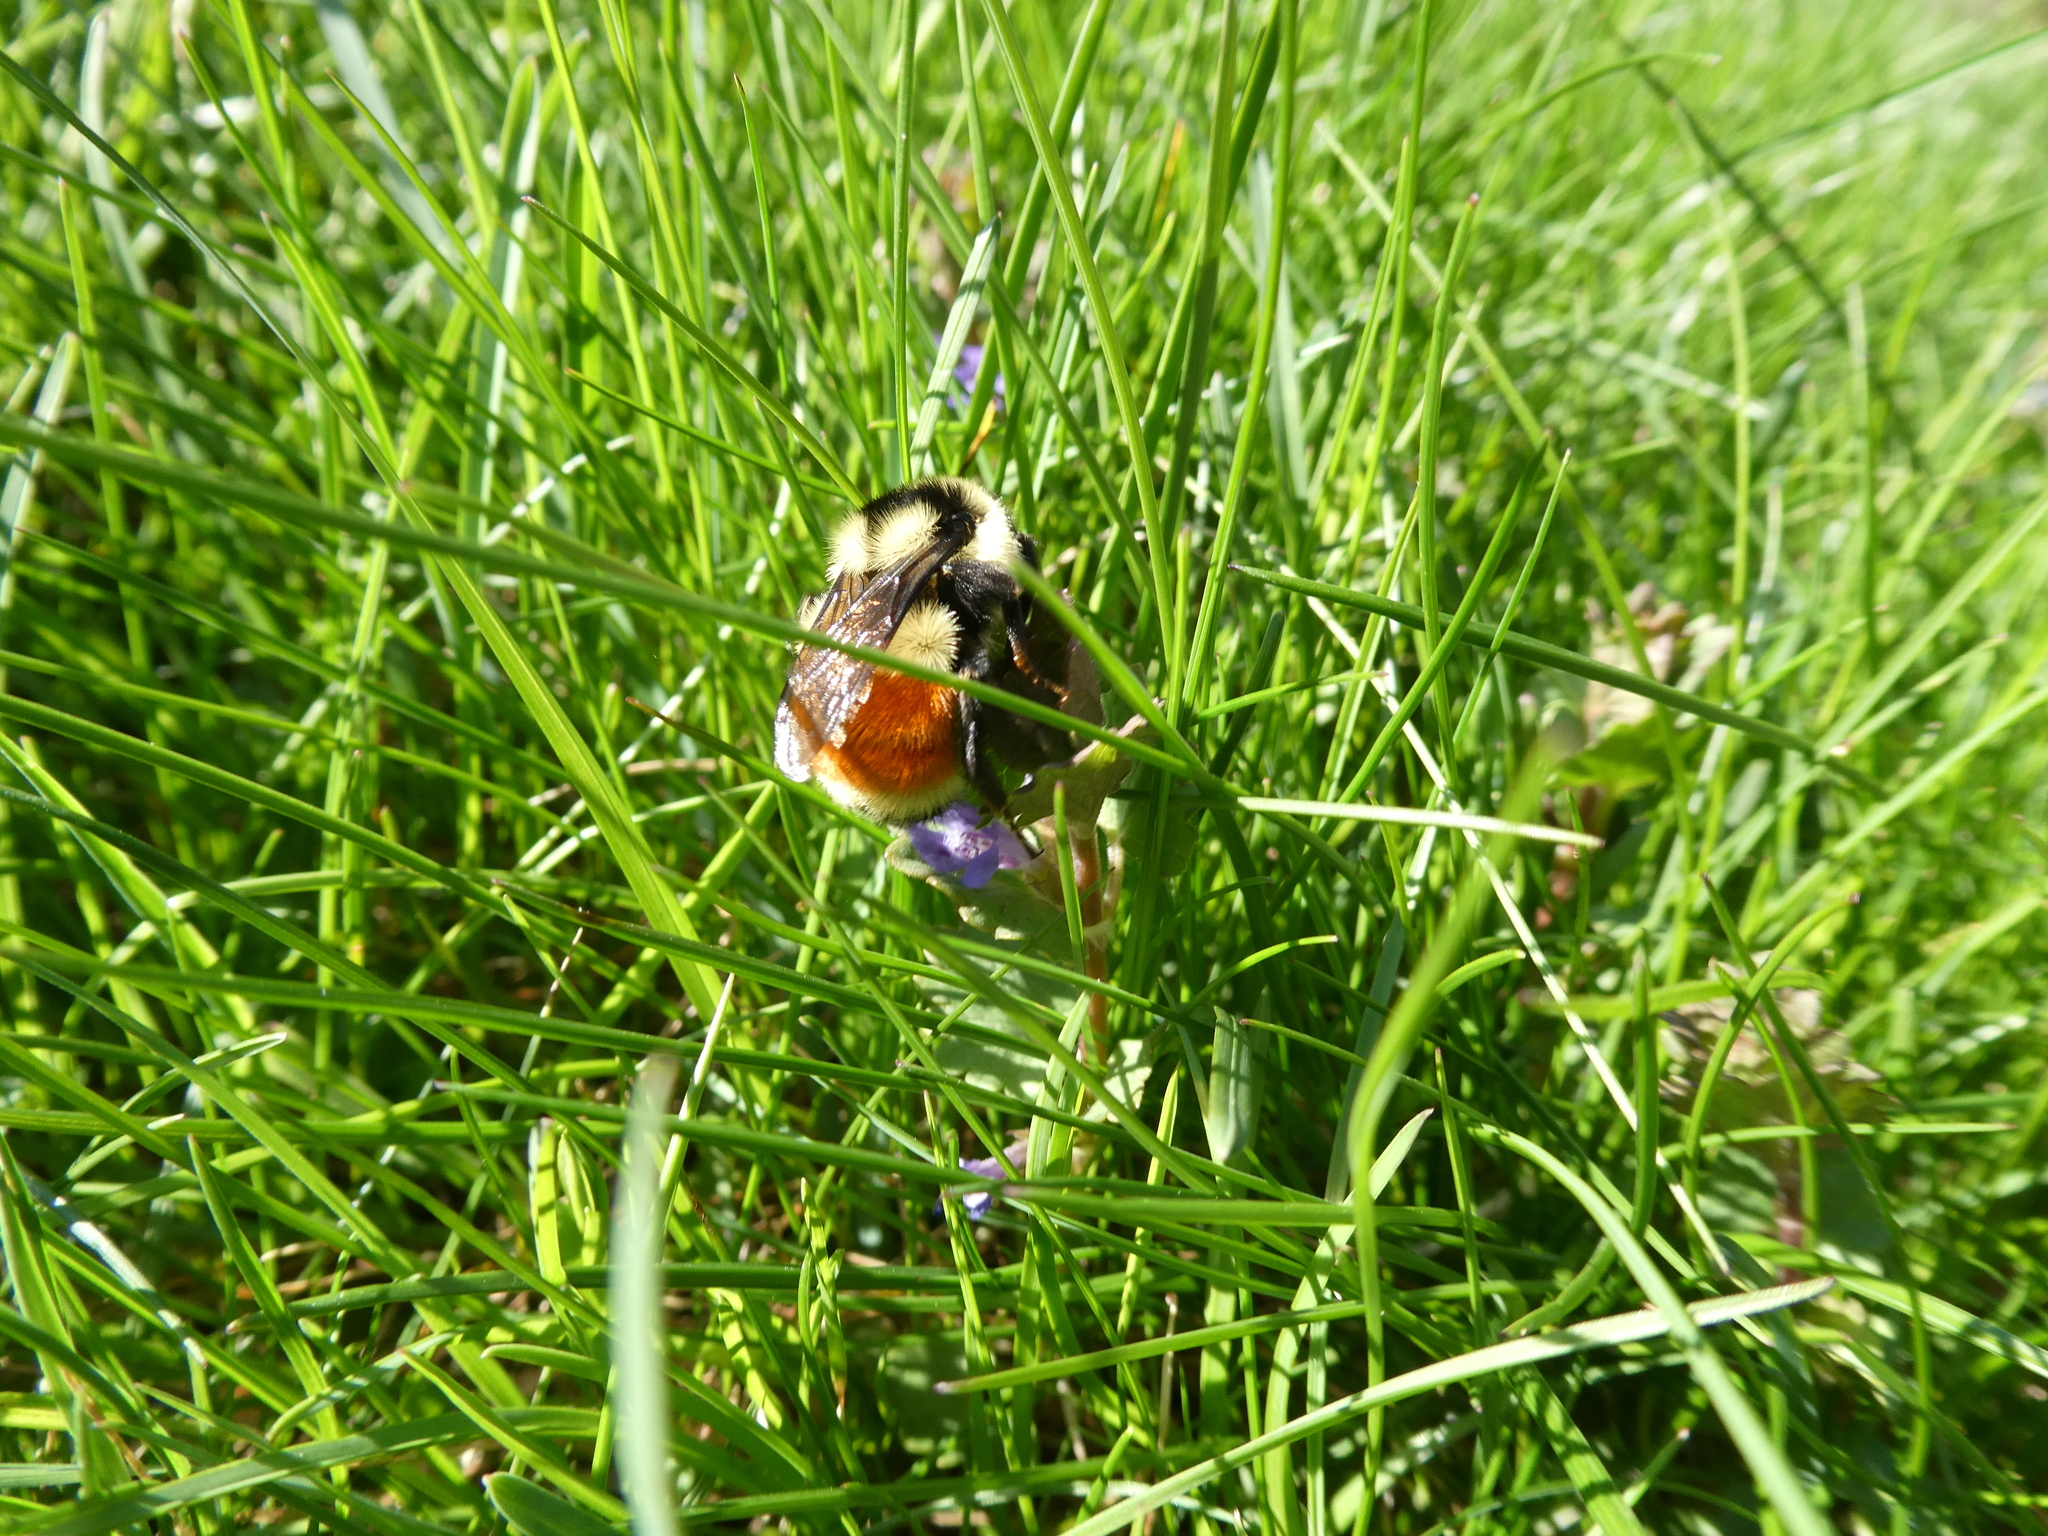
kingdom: Animalia
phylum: Arthropoda
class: Insecta
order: Hymenoptera
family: Apidae
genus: Bombus
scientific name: Bombus ternarius
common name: Tri-colored bumble bee
